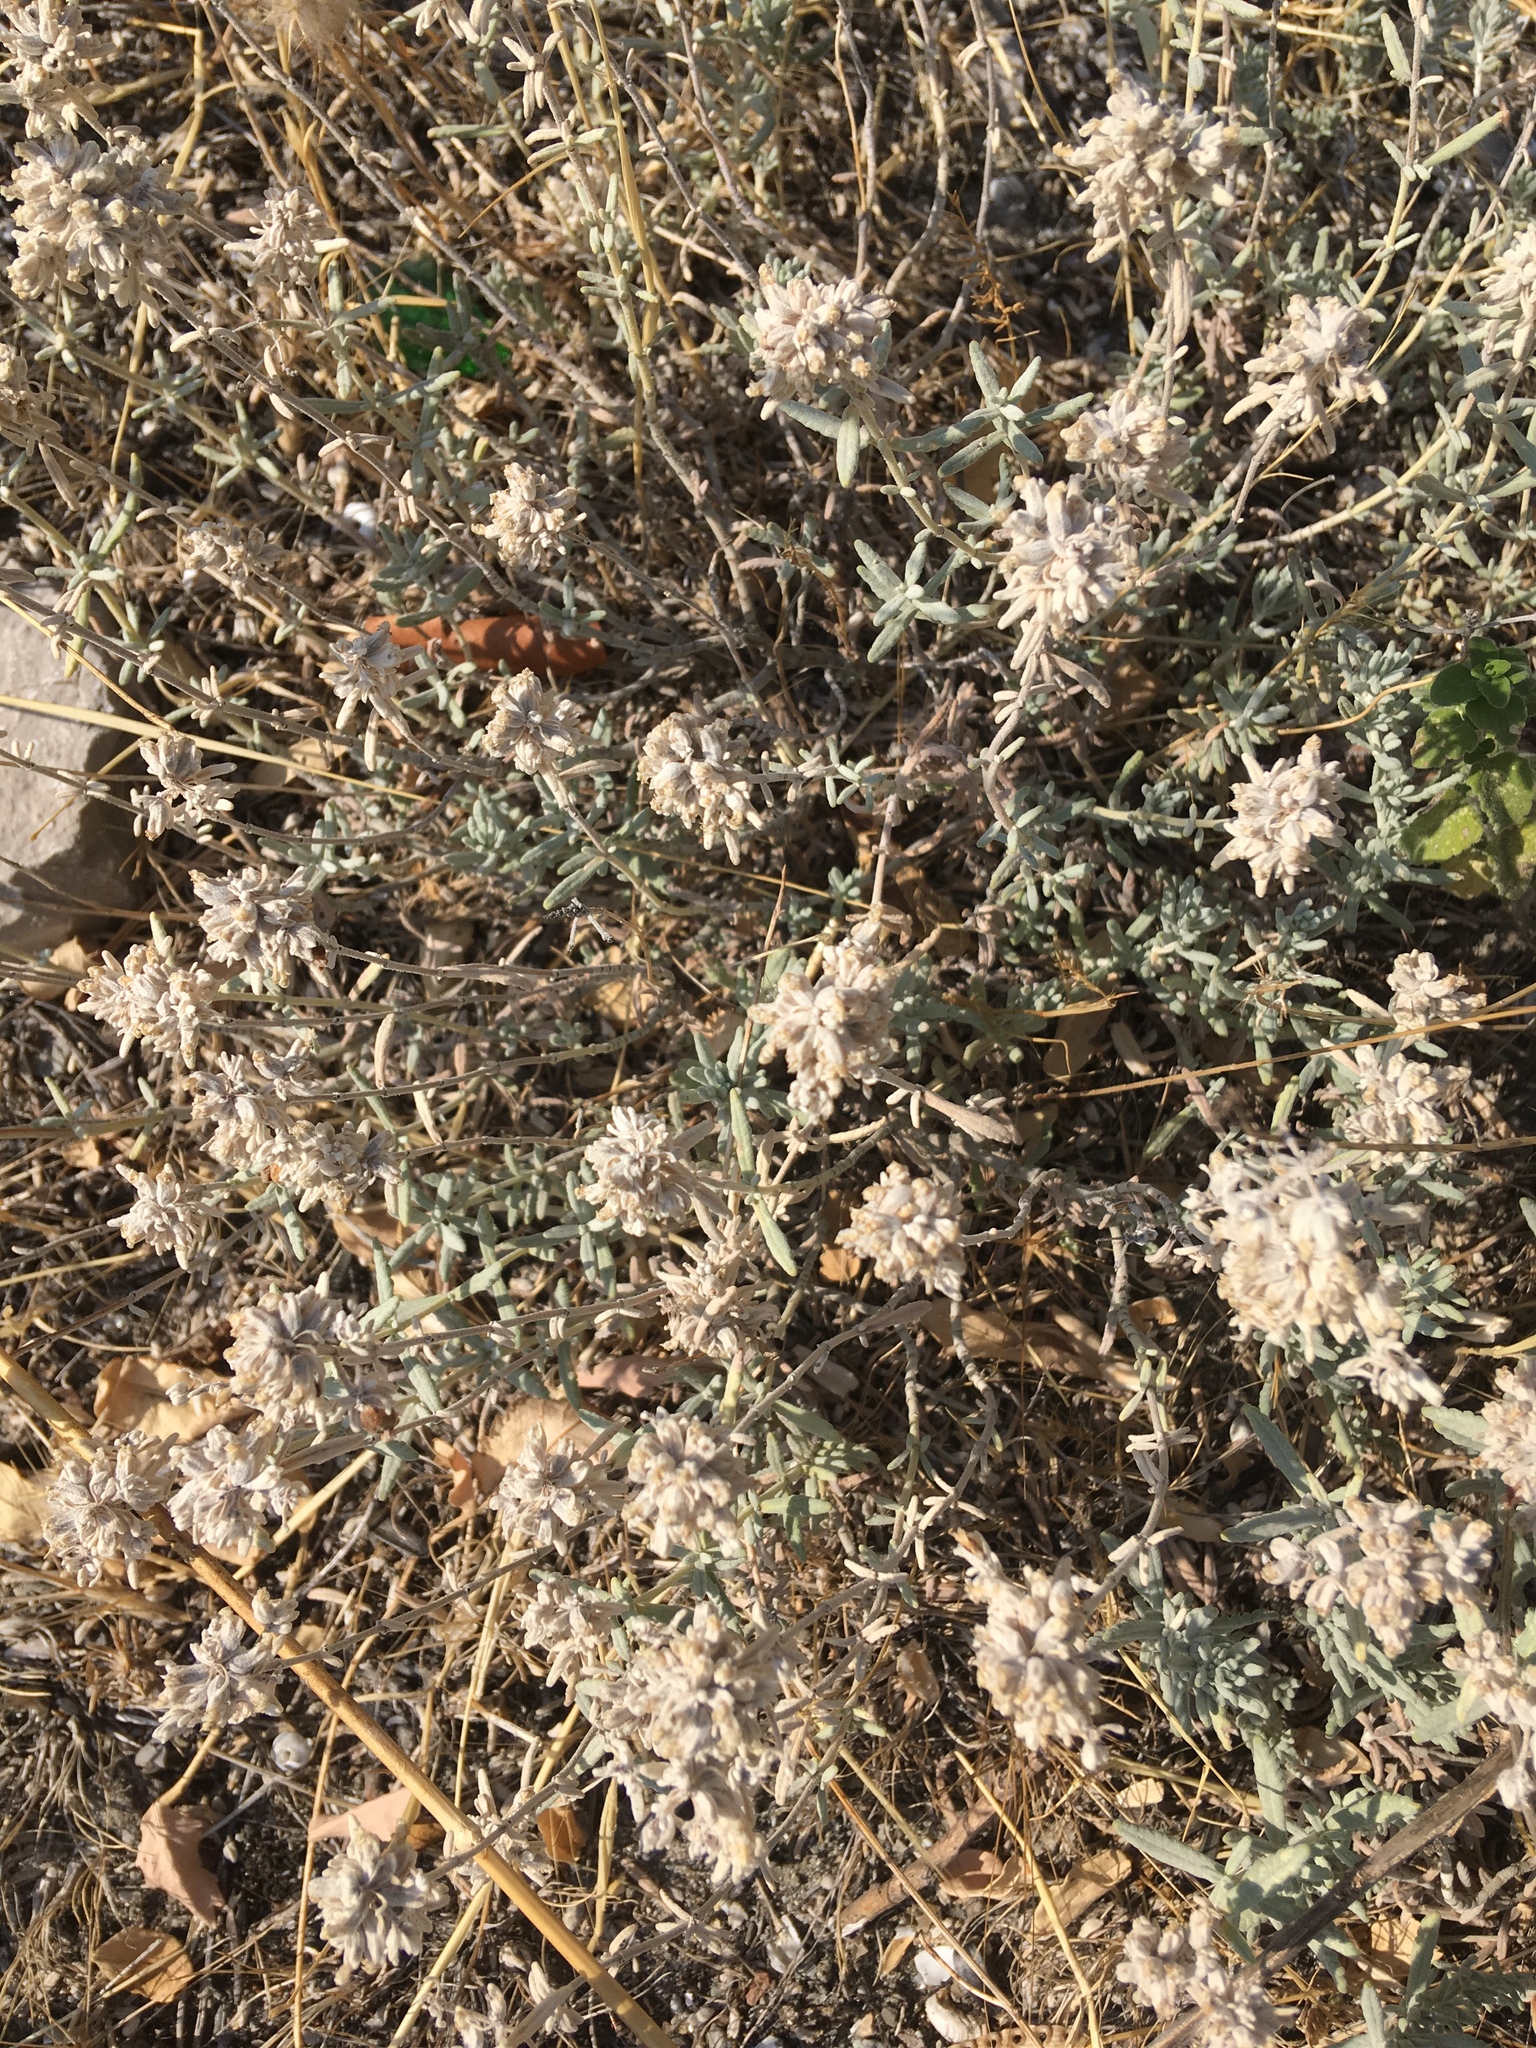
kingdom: Plantae
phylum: Tracheophyta
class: Magnoliopsida
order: Lamiales
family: Lamiaceae
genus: Teucrium
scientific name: Teucrium polium
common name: Poley
